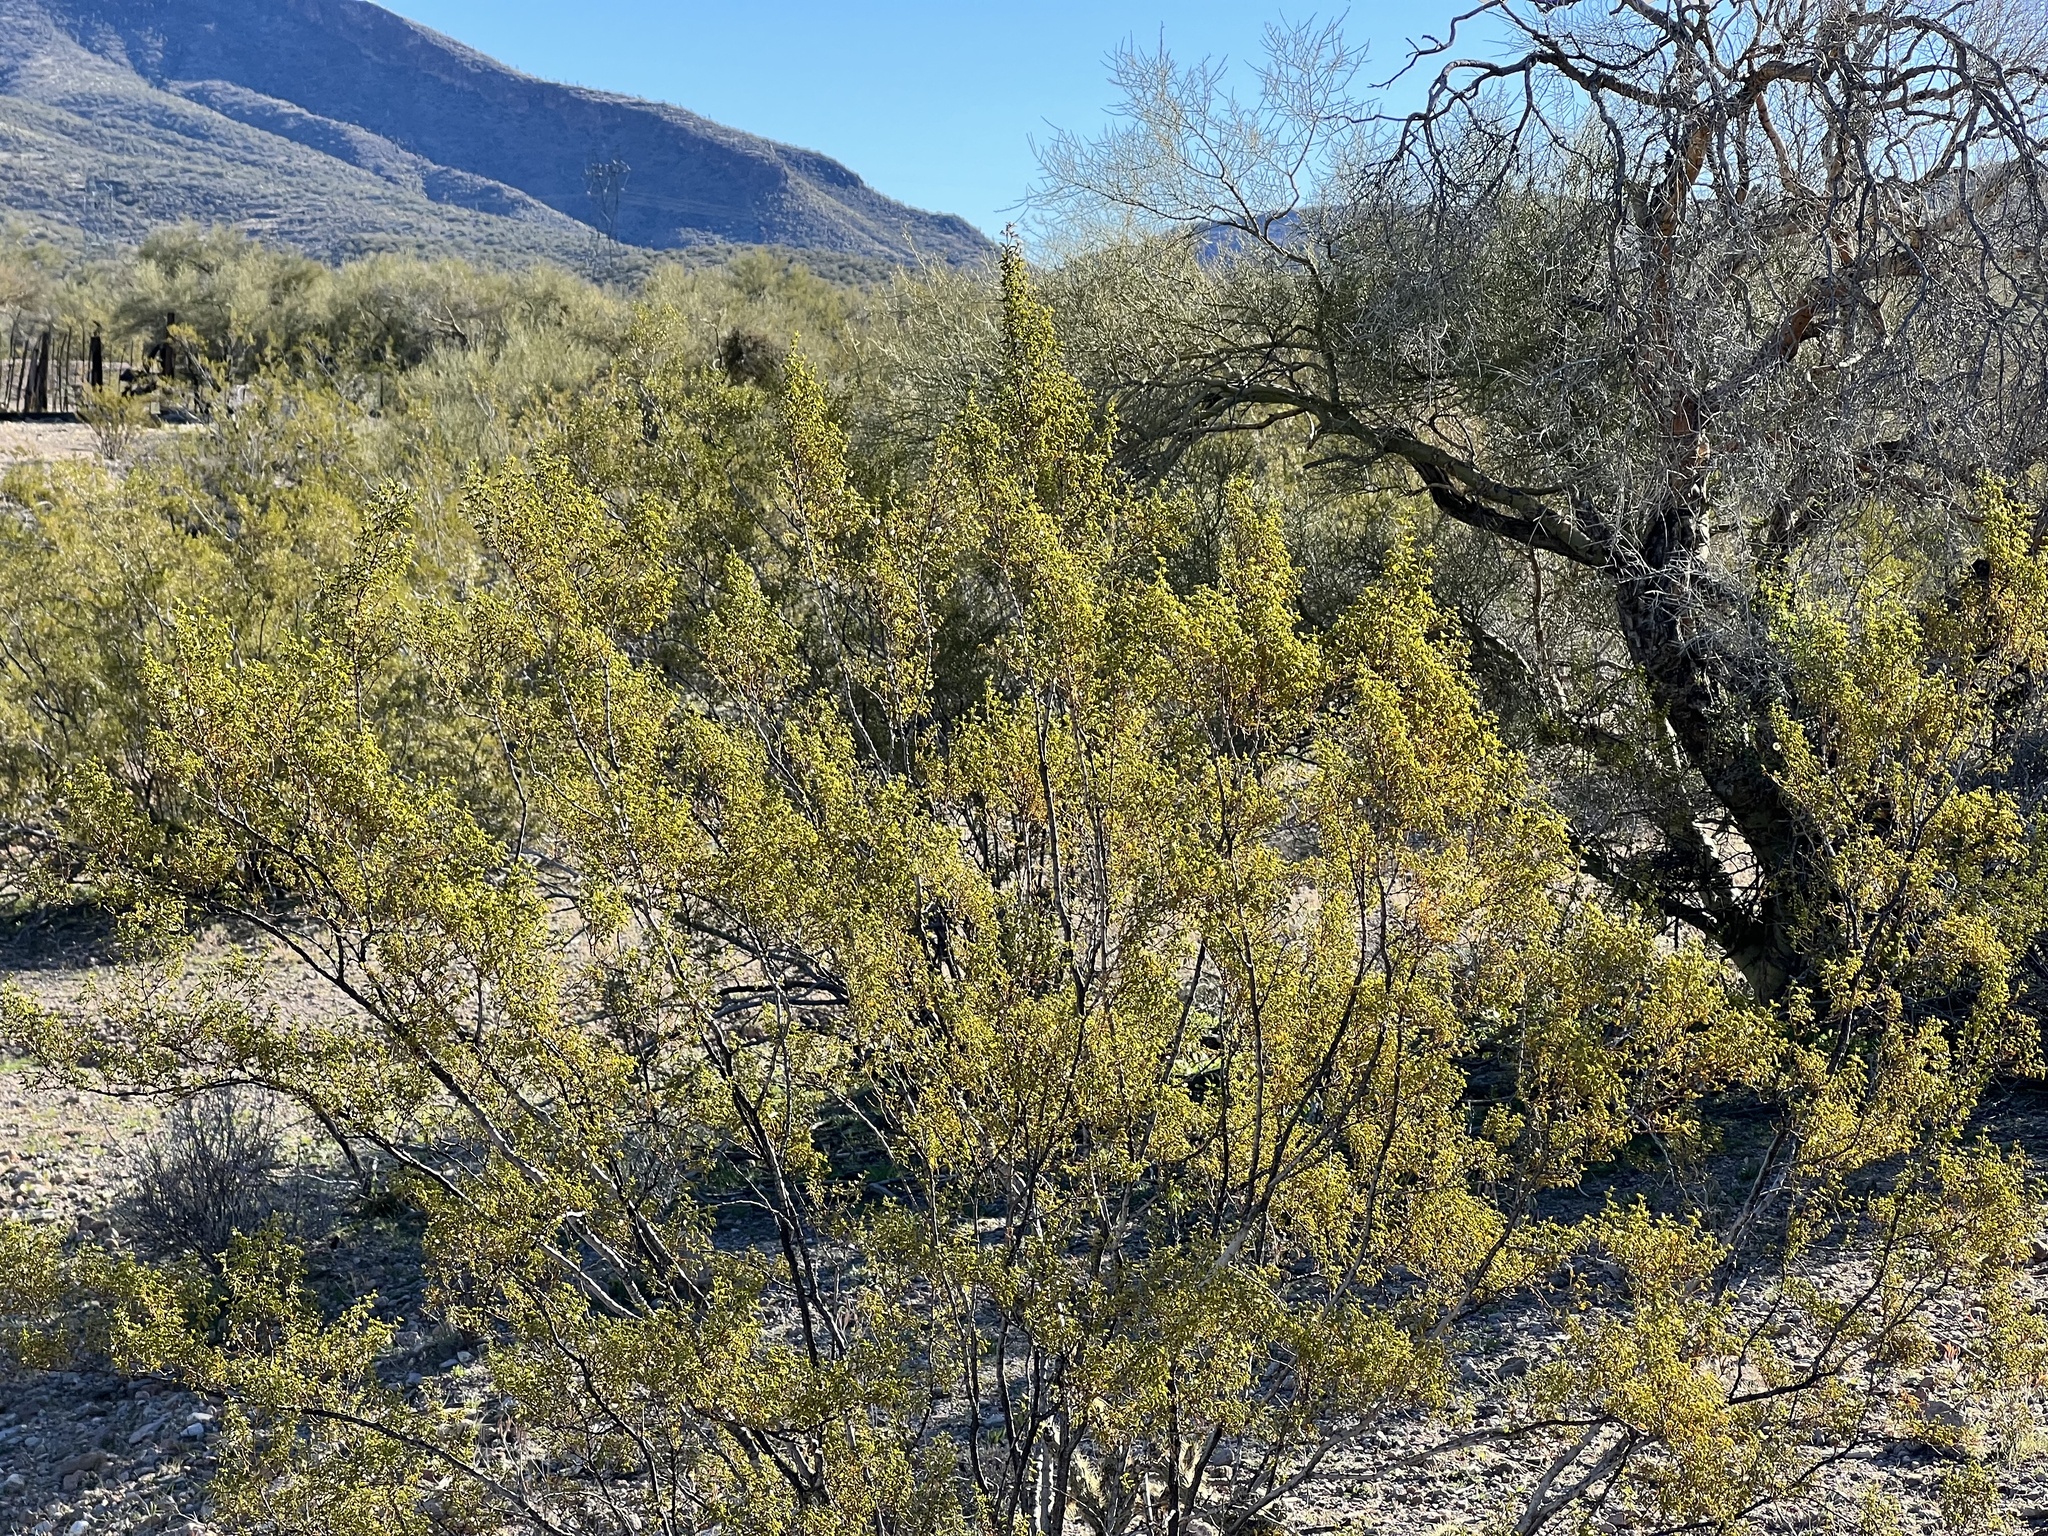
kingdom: Plantae
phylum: Tracheophyta
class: Magnoliopsida
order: Zygophyllales
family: Zygophyllaceae
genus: Larrea
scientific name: Larrea tridentata
